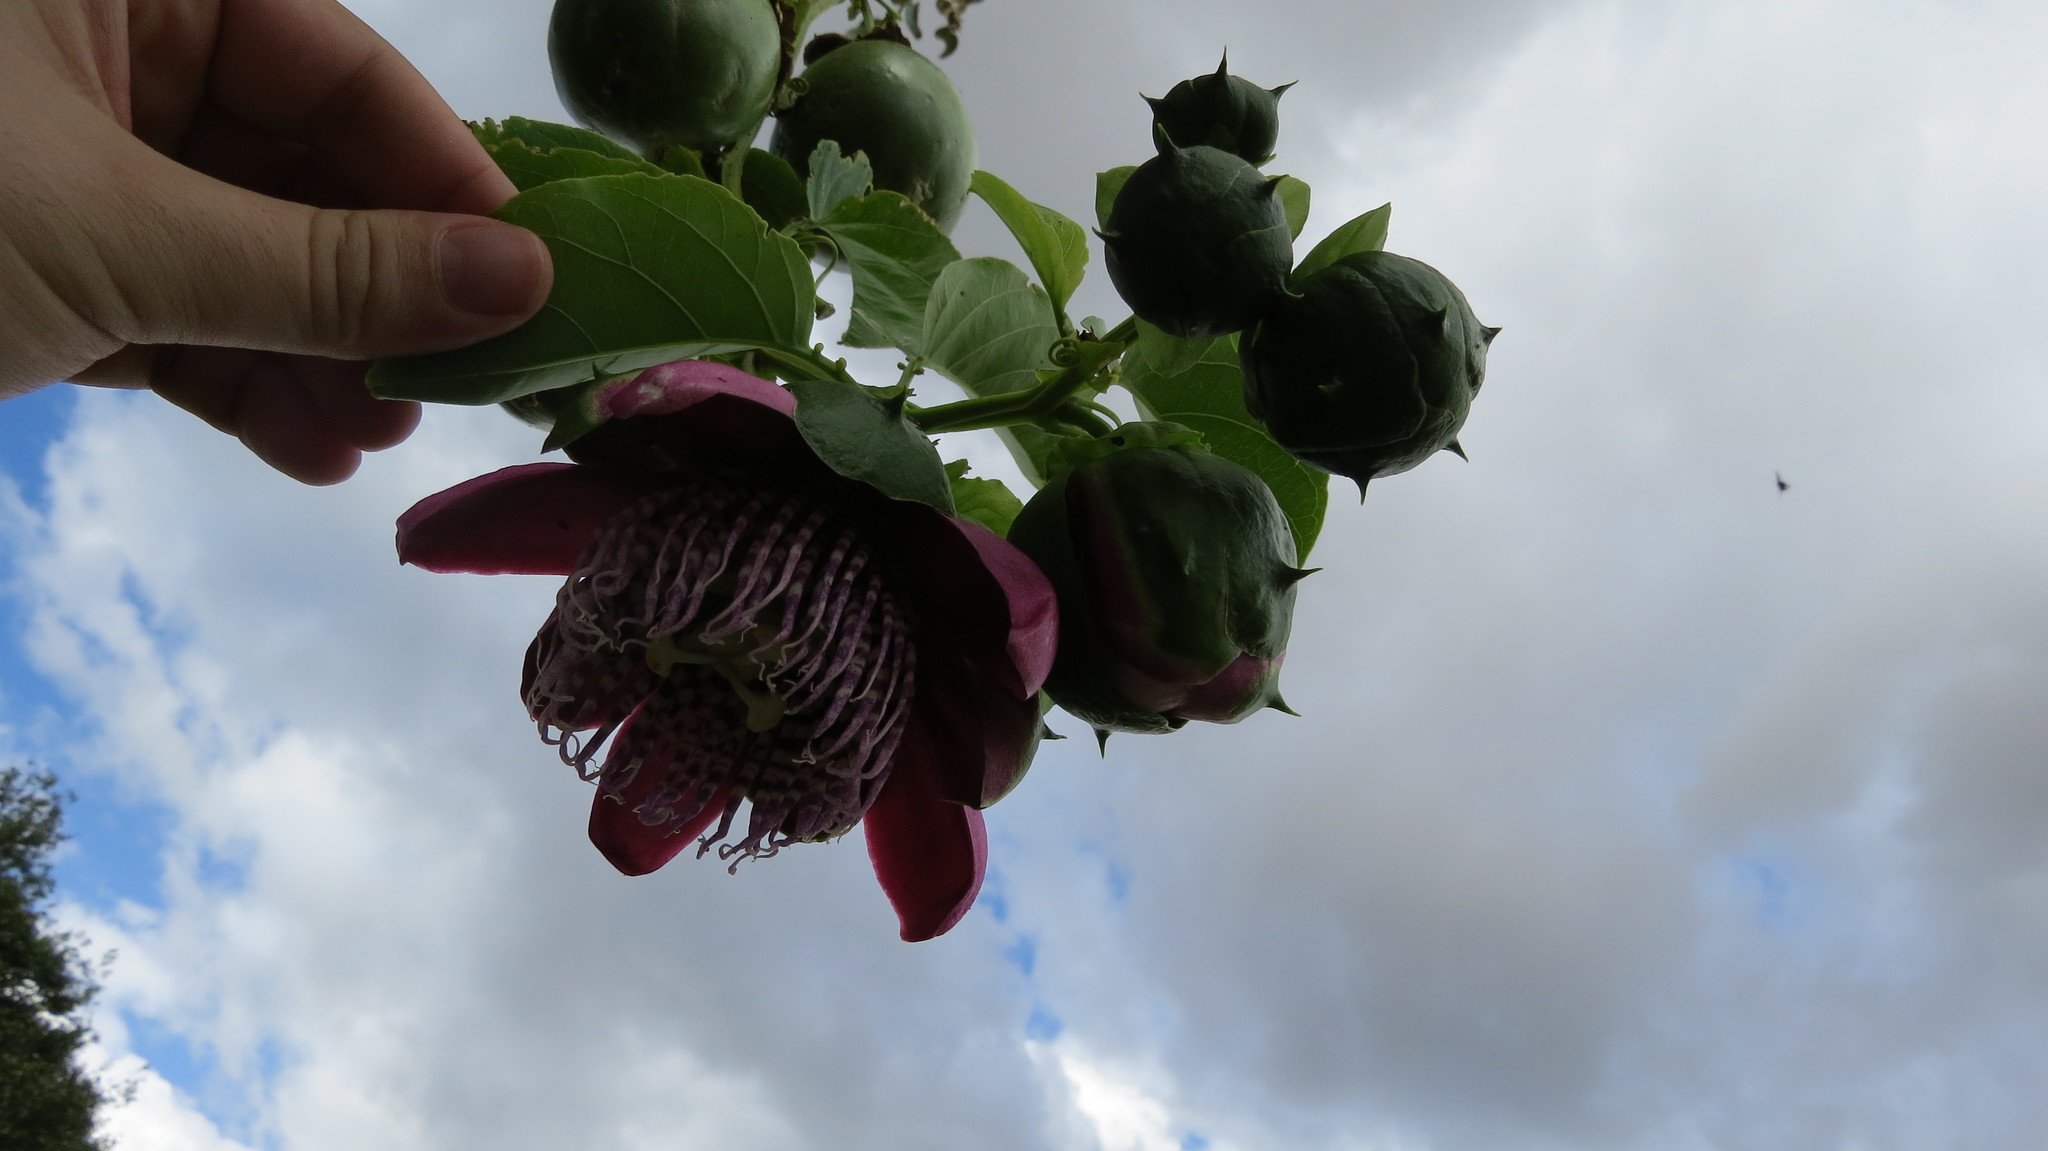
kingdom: Plantae
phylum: Tracheophyta
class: Magnoliopsida
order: Malpighiales
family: Passifloraceae
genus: Passiflora
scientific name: Passiflora alata
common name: Wing-stemmed passion flower
